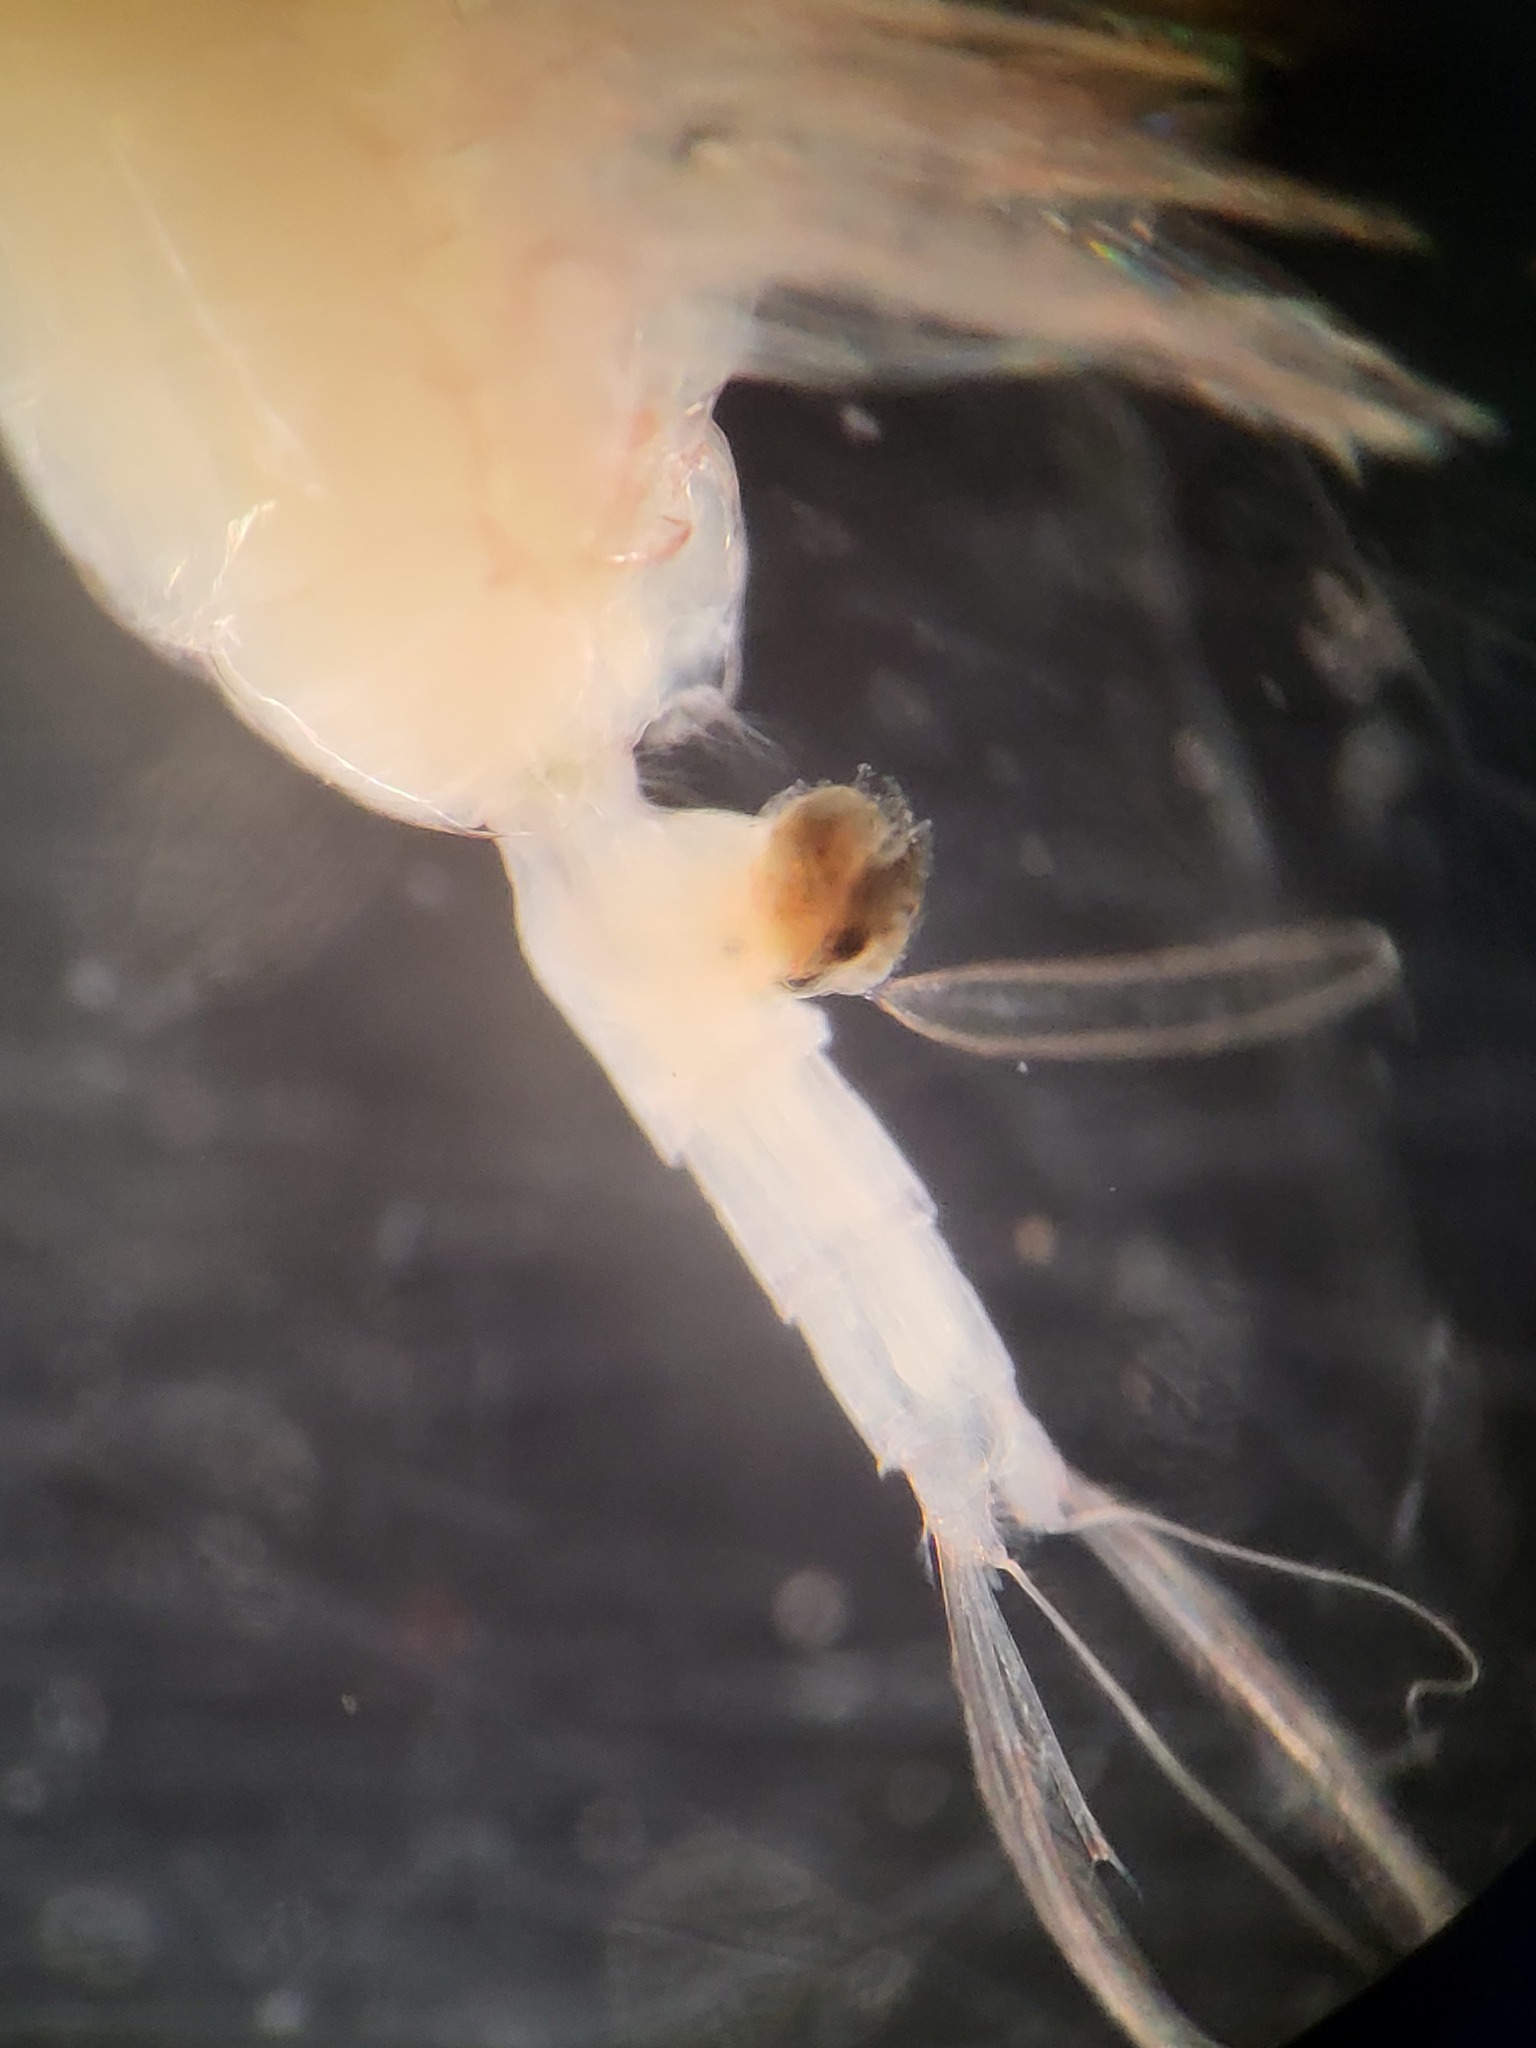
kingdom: Animalia
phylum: Arthropoda
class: Copepoda
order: Calanoida
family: Euchaetidae
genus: Paraeuchaeta
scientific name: Paraeuchaeta glacialis
